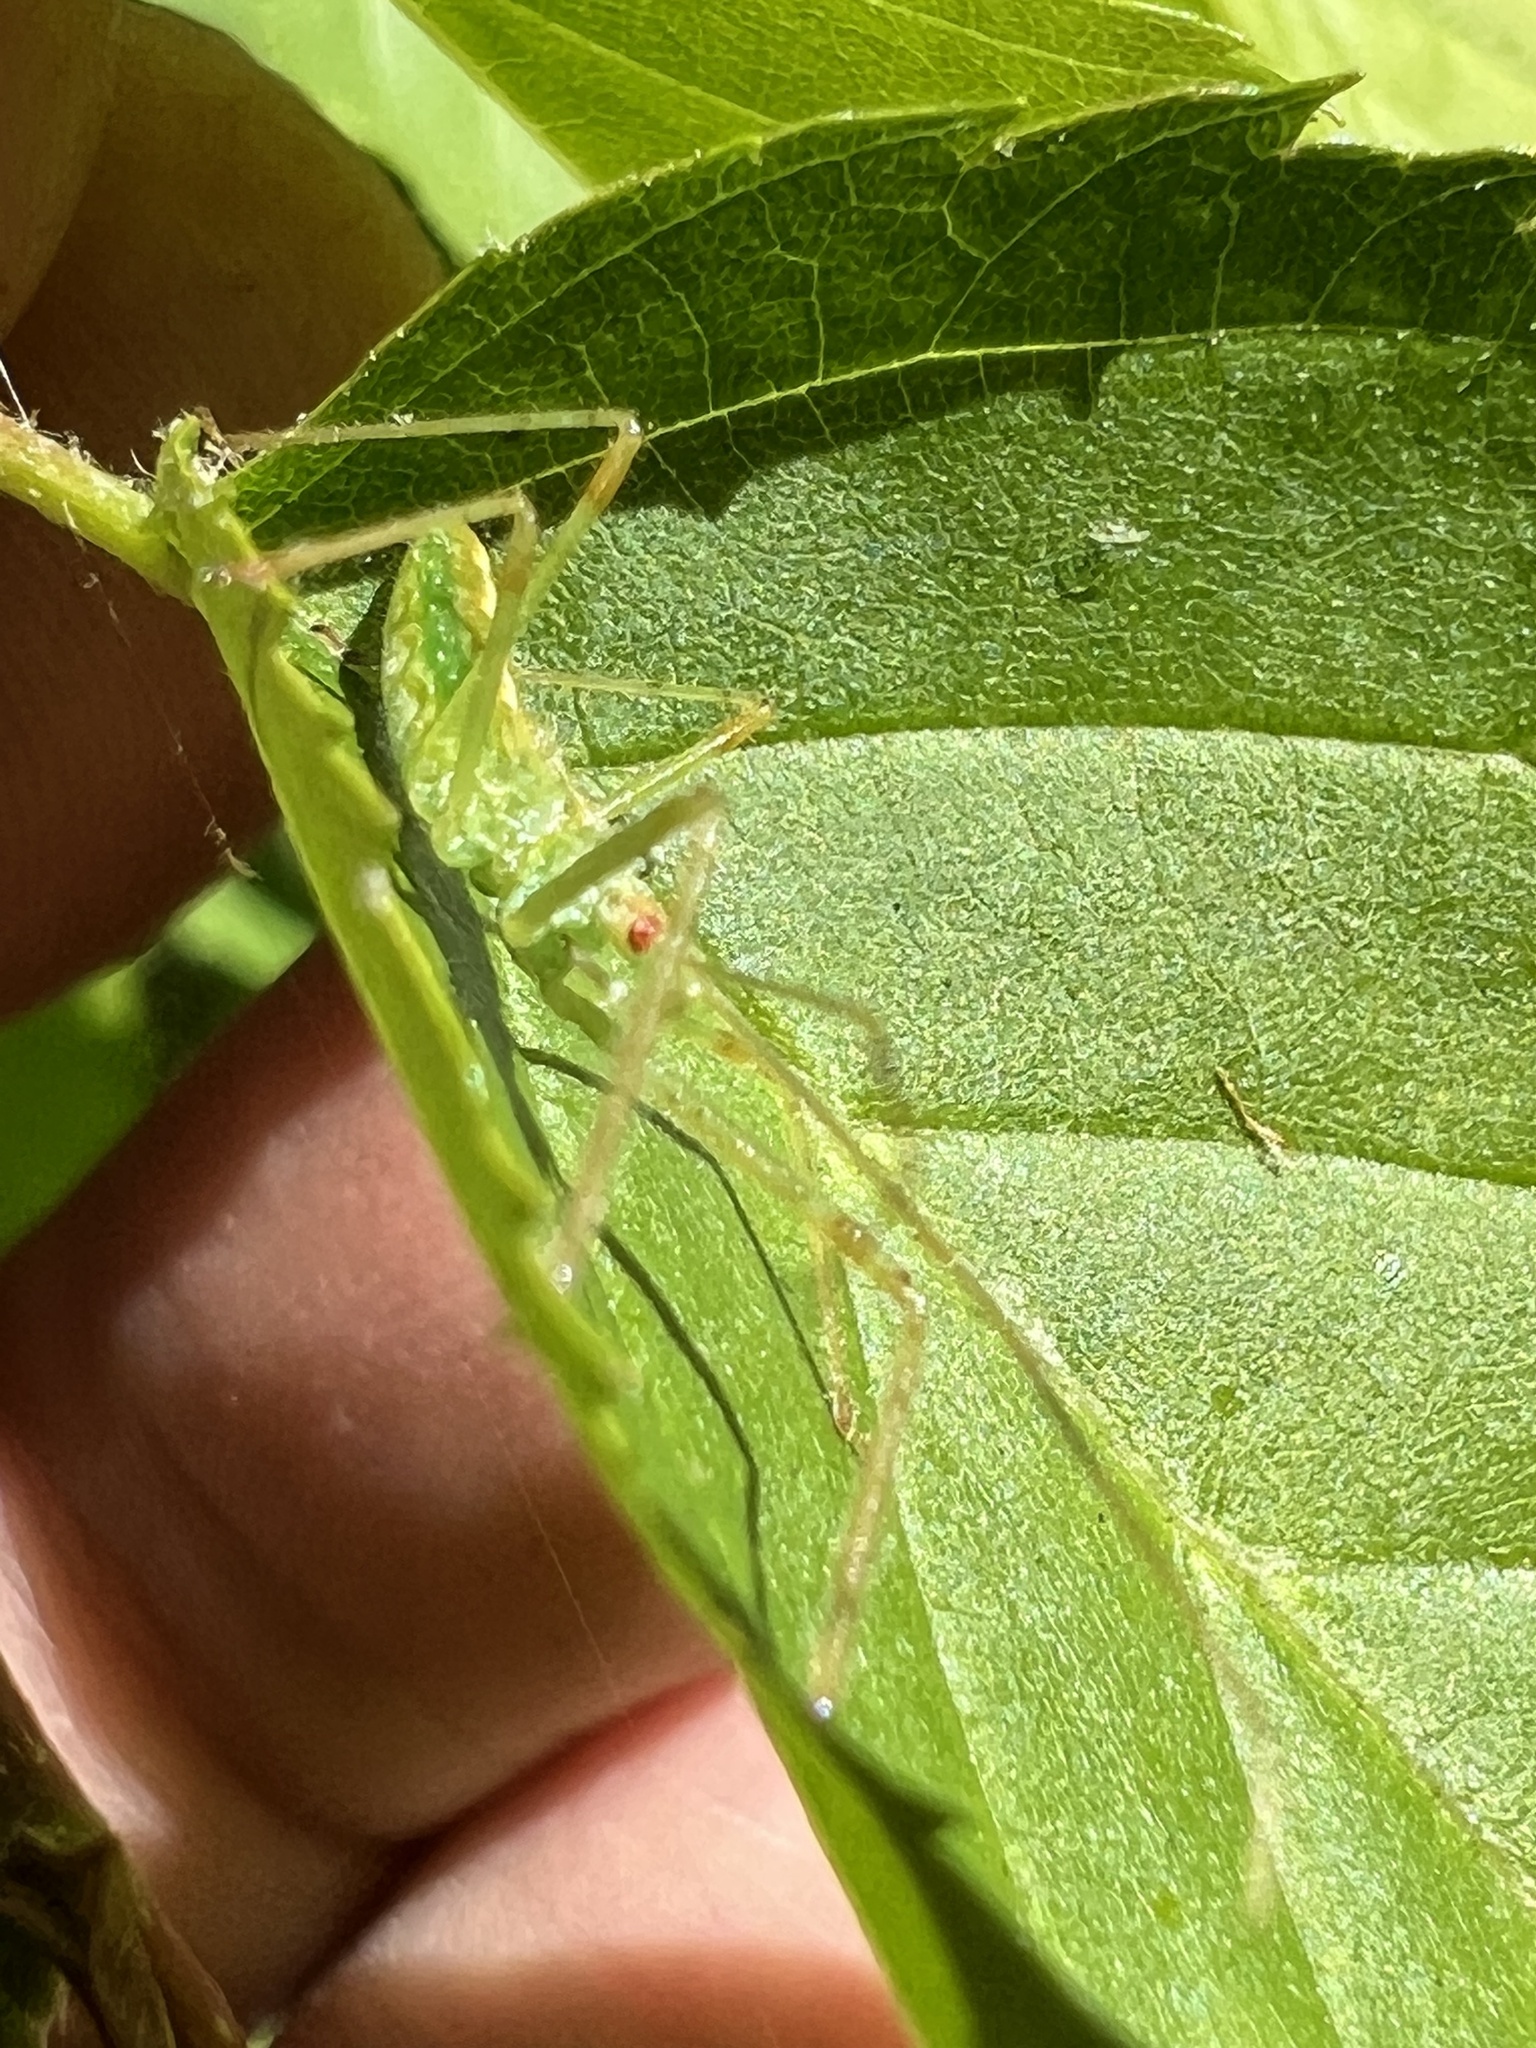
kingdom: Animalia
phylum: Arthropoda
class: Insecta
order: Hemiptera
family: Reduviidae
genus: Zelus
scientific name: Zelus luridus
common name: Pale green assassin bug
